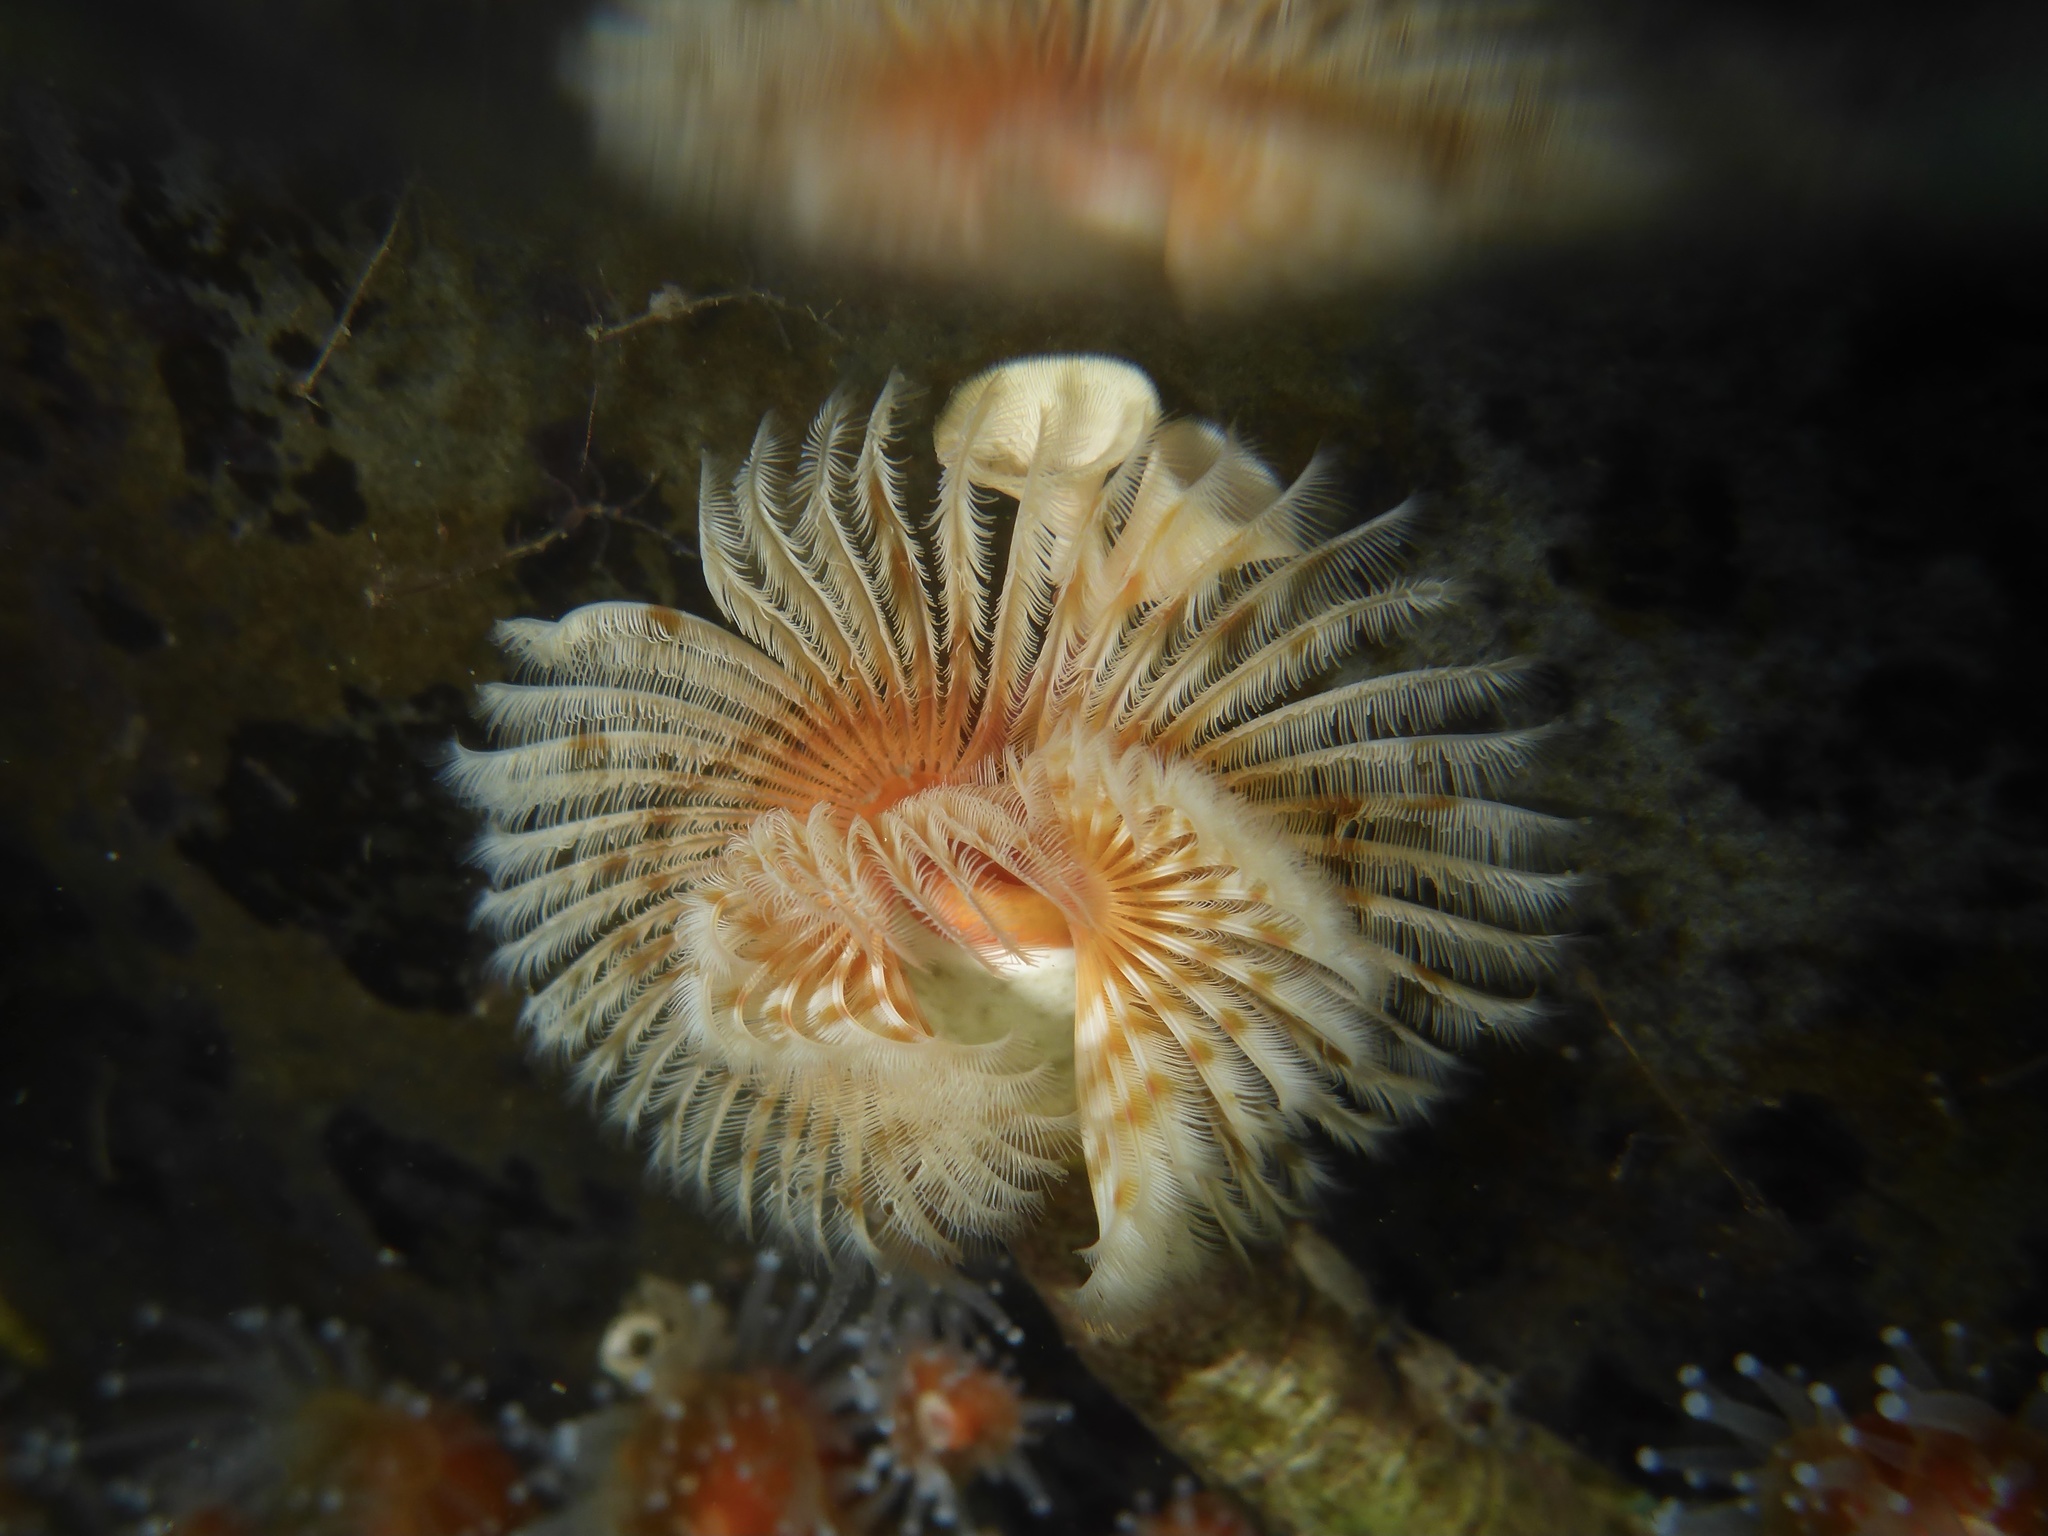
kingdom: Animalia
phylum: Annelida
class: Polychaeta
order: Sabellida
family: Serpulidae
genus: Serpula
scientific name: Serpula columbiana
